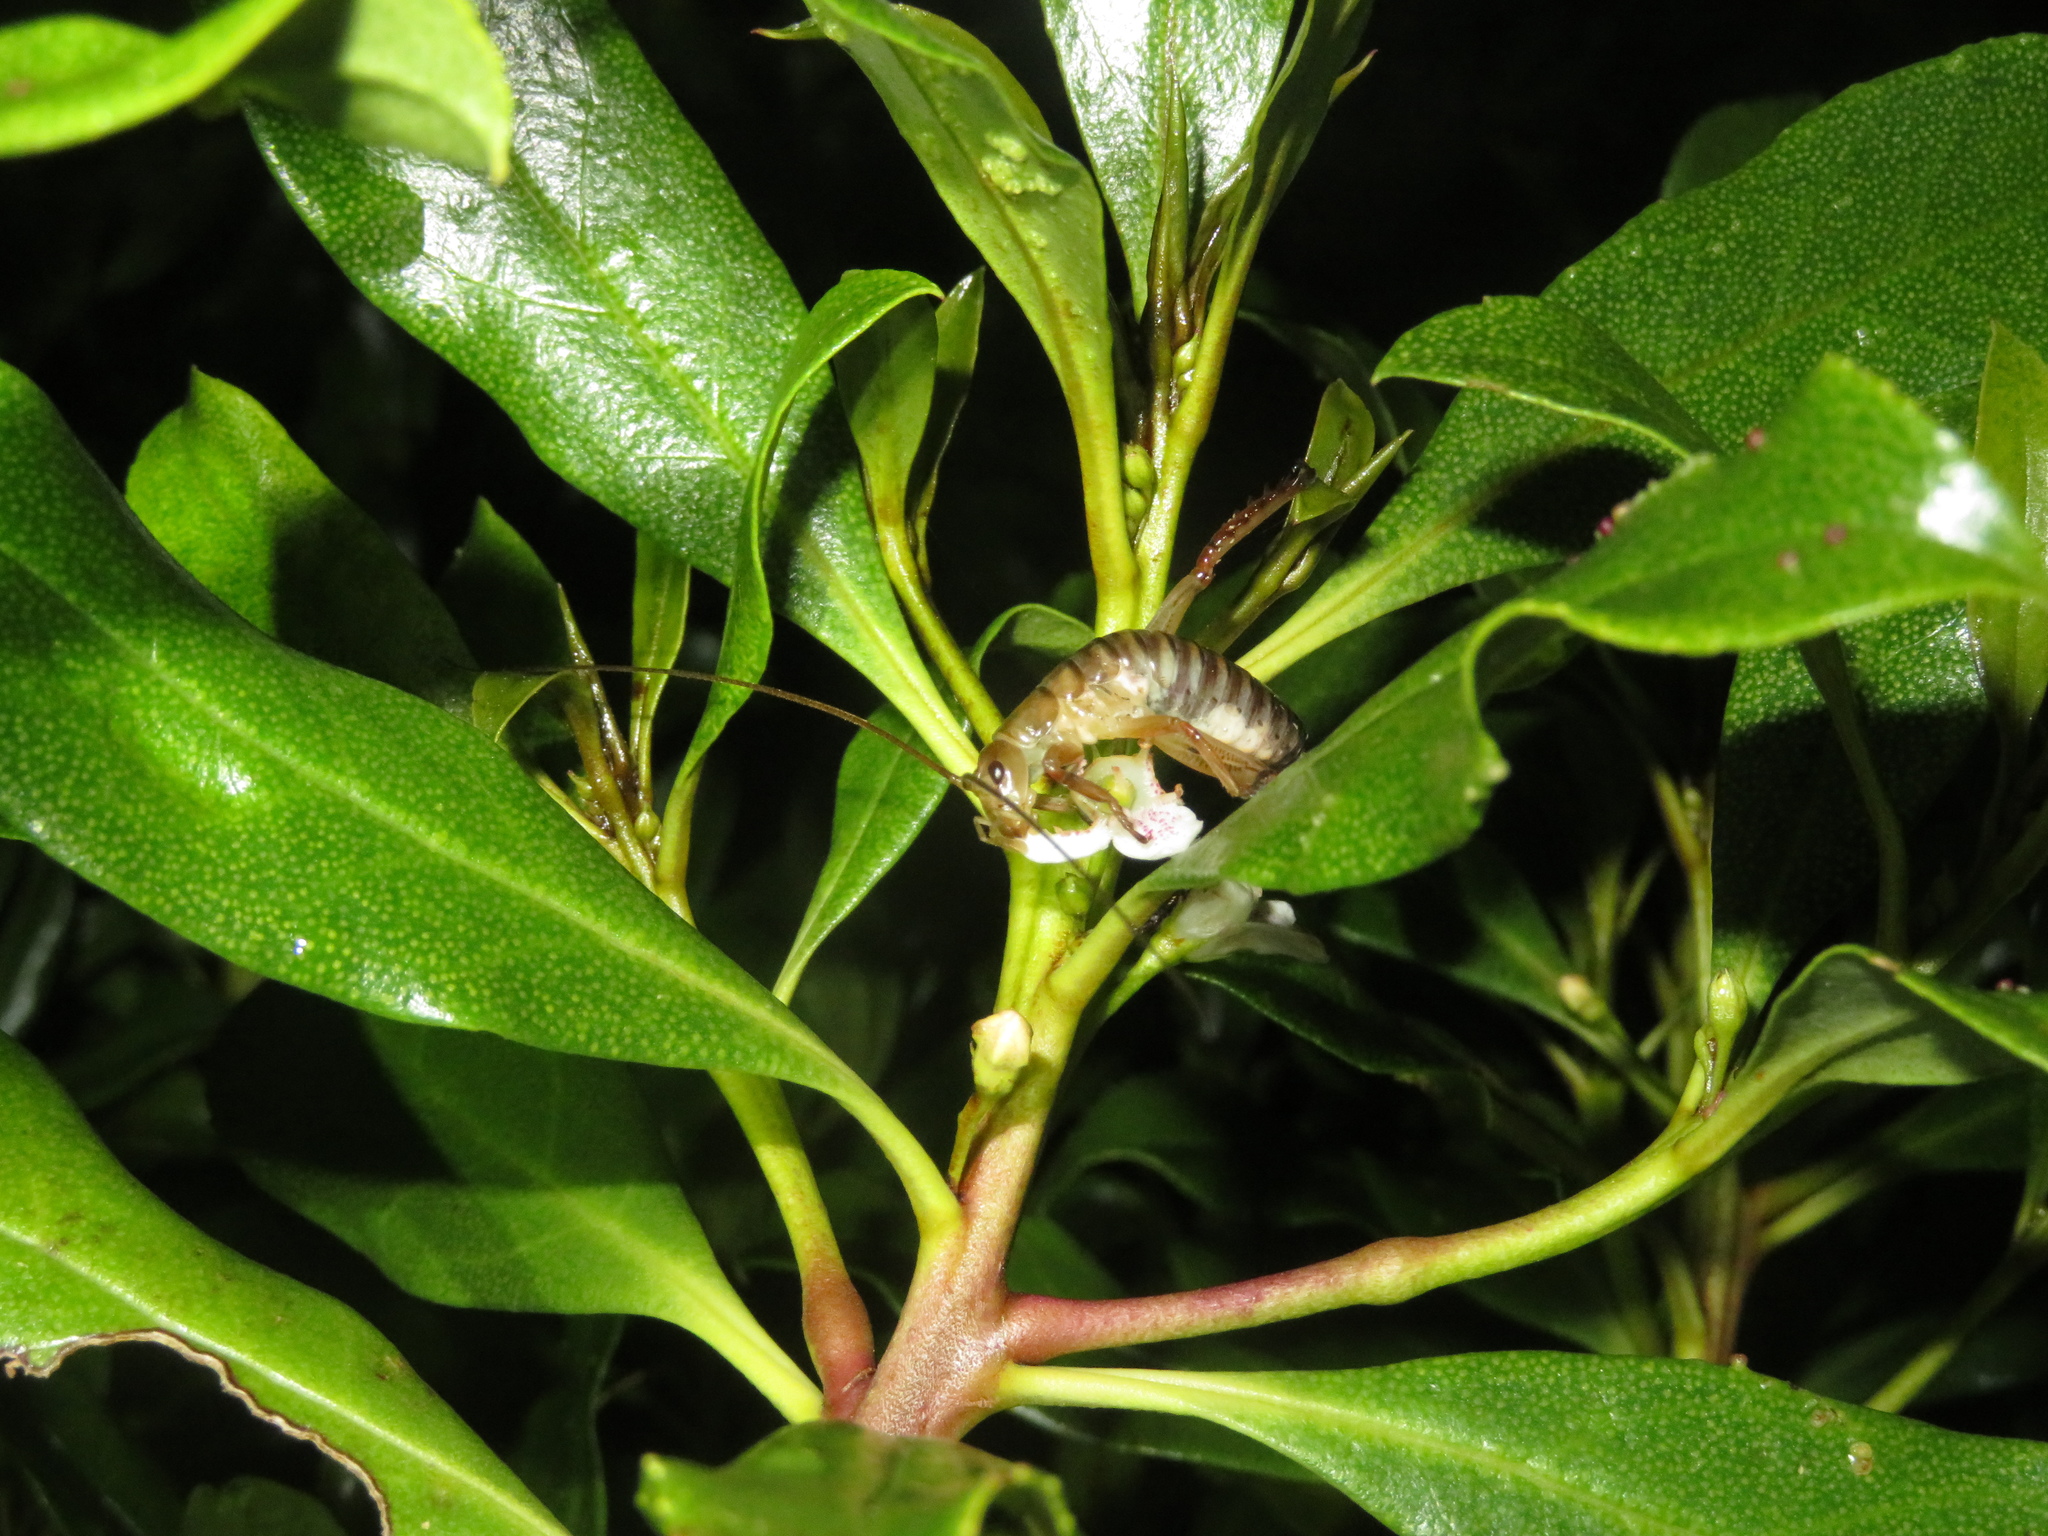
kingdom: Animalia
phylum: Arthropoda
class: Insecta
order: Orthoptera
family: Anostostomatidae
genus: Hemideina
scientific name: Hemideina crassidens
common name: Wellington tree weta
